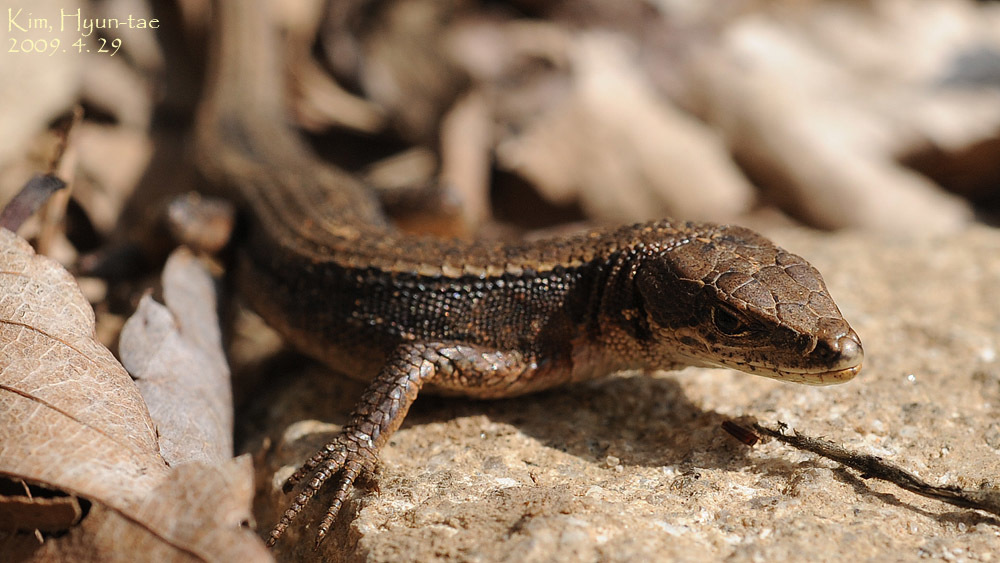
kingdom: Animalia
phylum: Chordata
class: Squamata
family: Lacertidae
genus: Takydromus
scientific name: Takydromus amurensis
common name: Amur grass lizard
